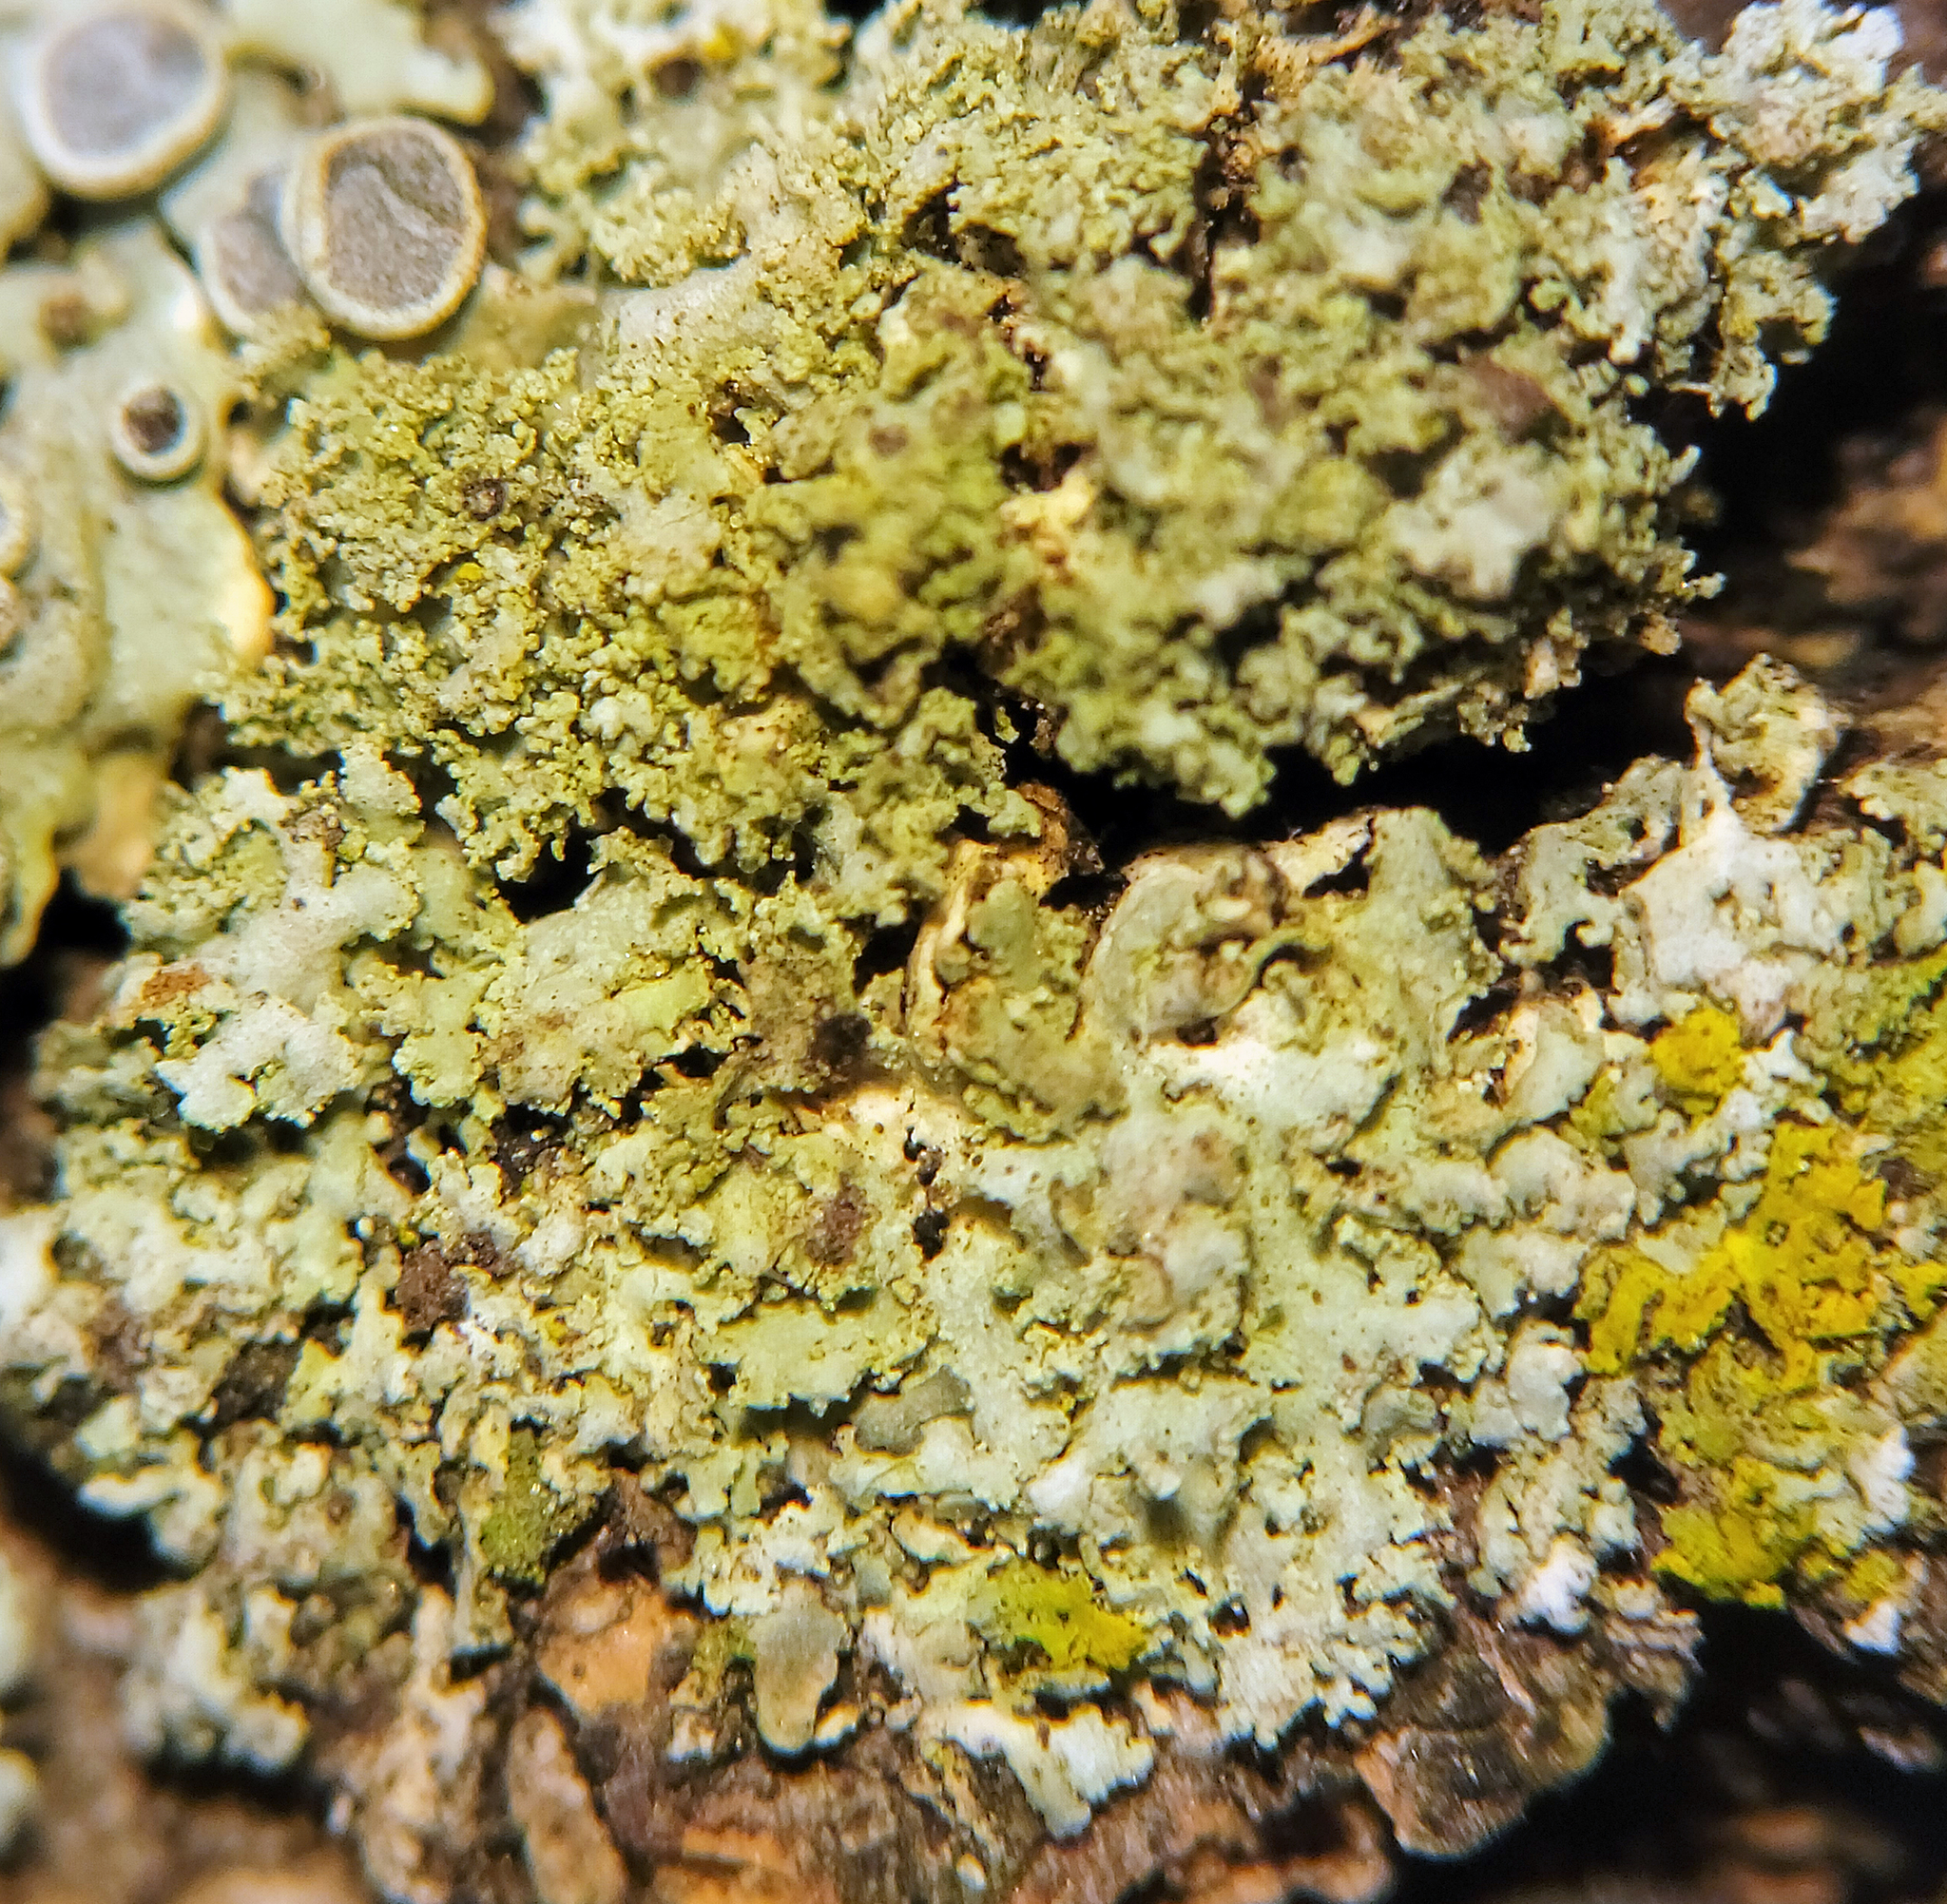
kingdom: Fungi
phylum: Ascomycota
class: Lecanoromycetes
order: Caliciales
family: Physciaceae
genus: Physcia
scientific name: Physcia millegrana
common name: Rosette lichen
